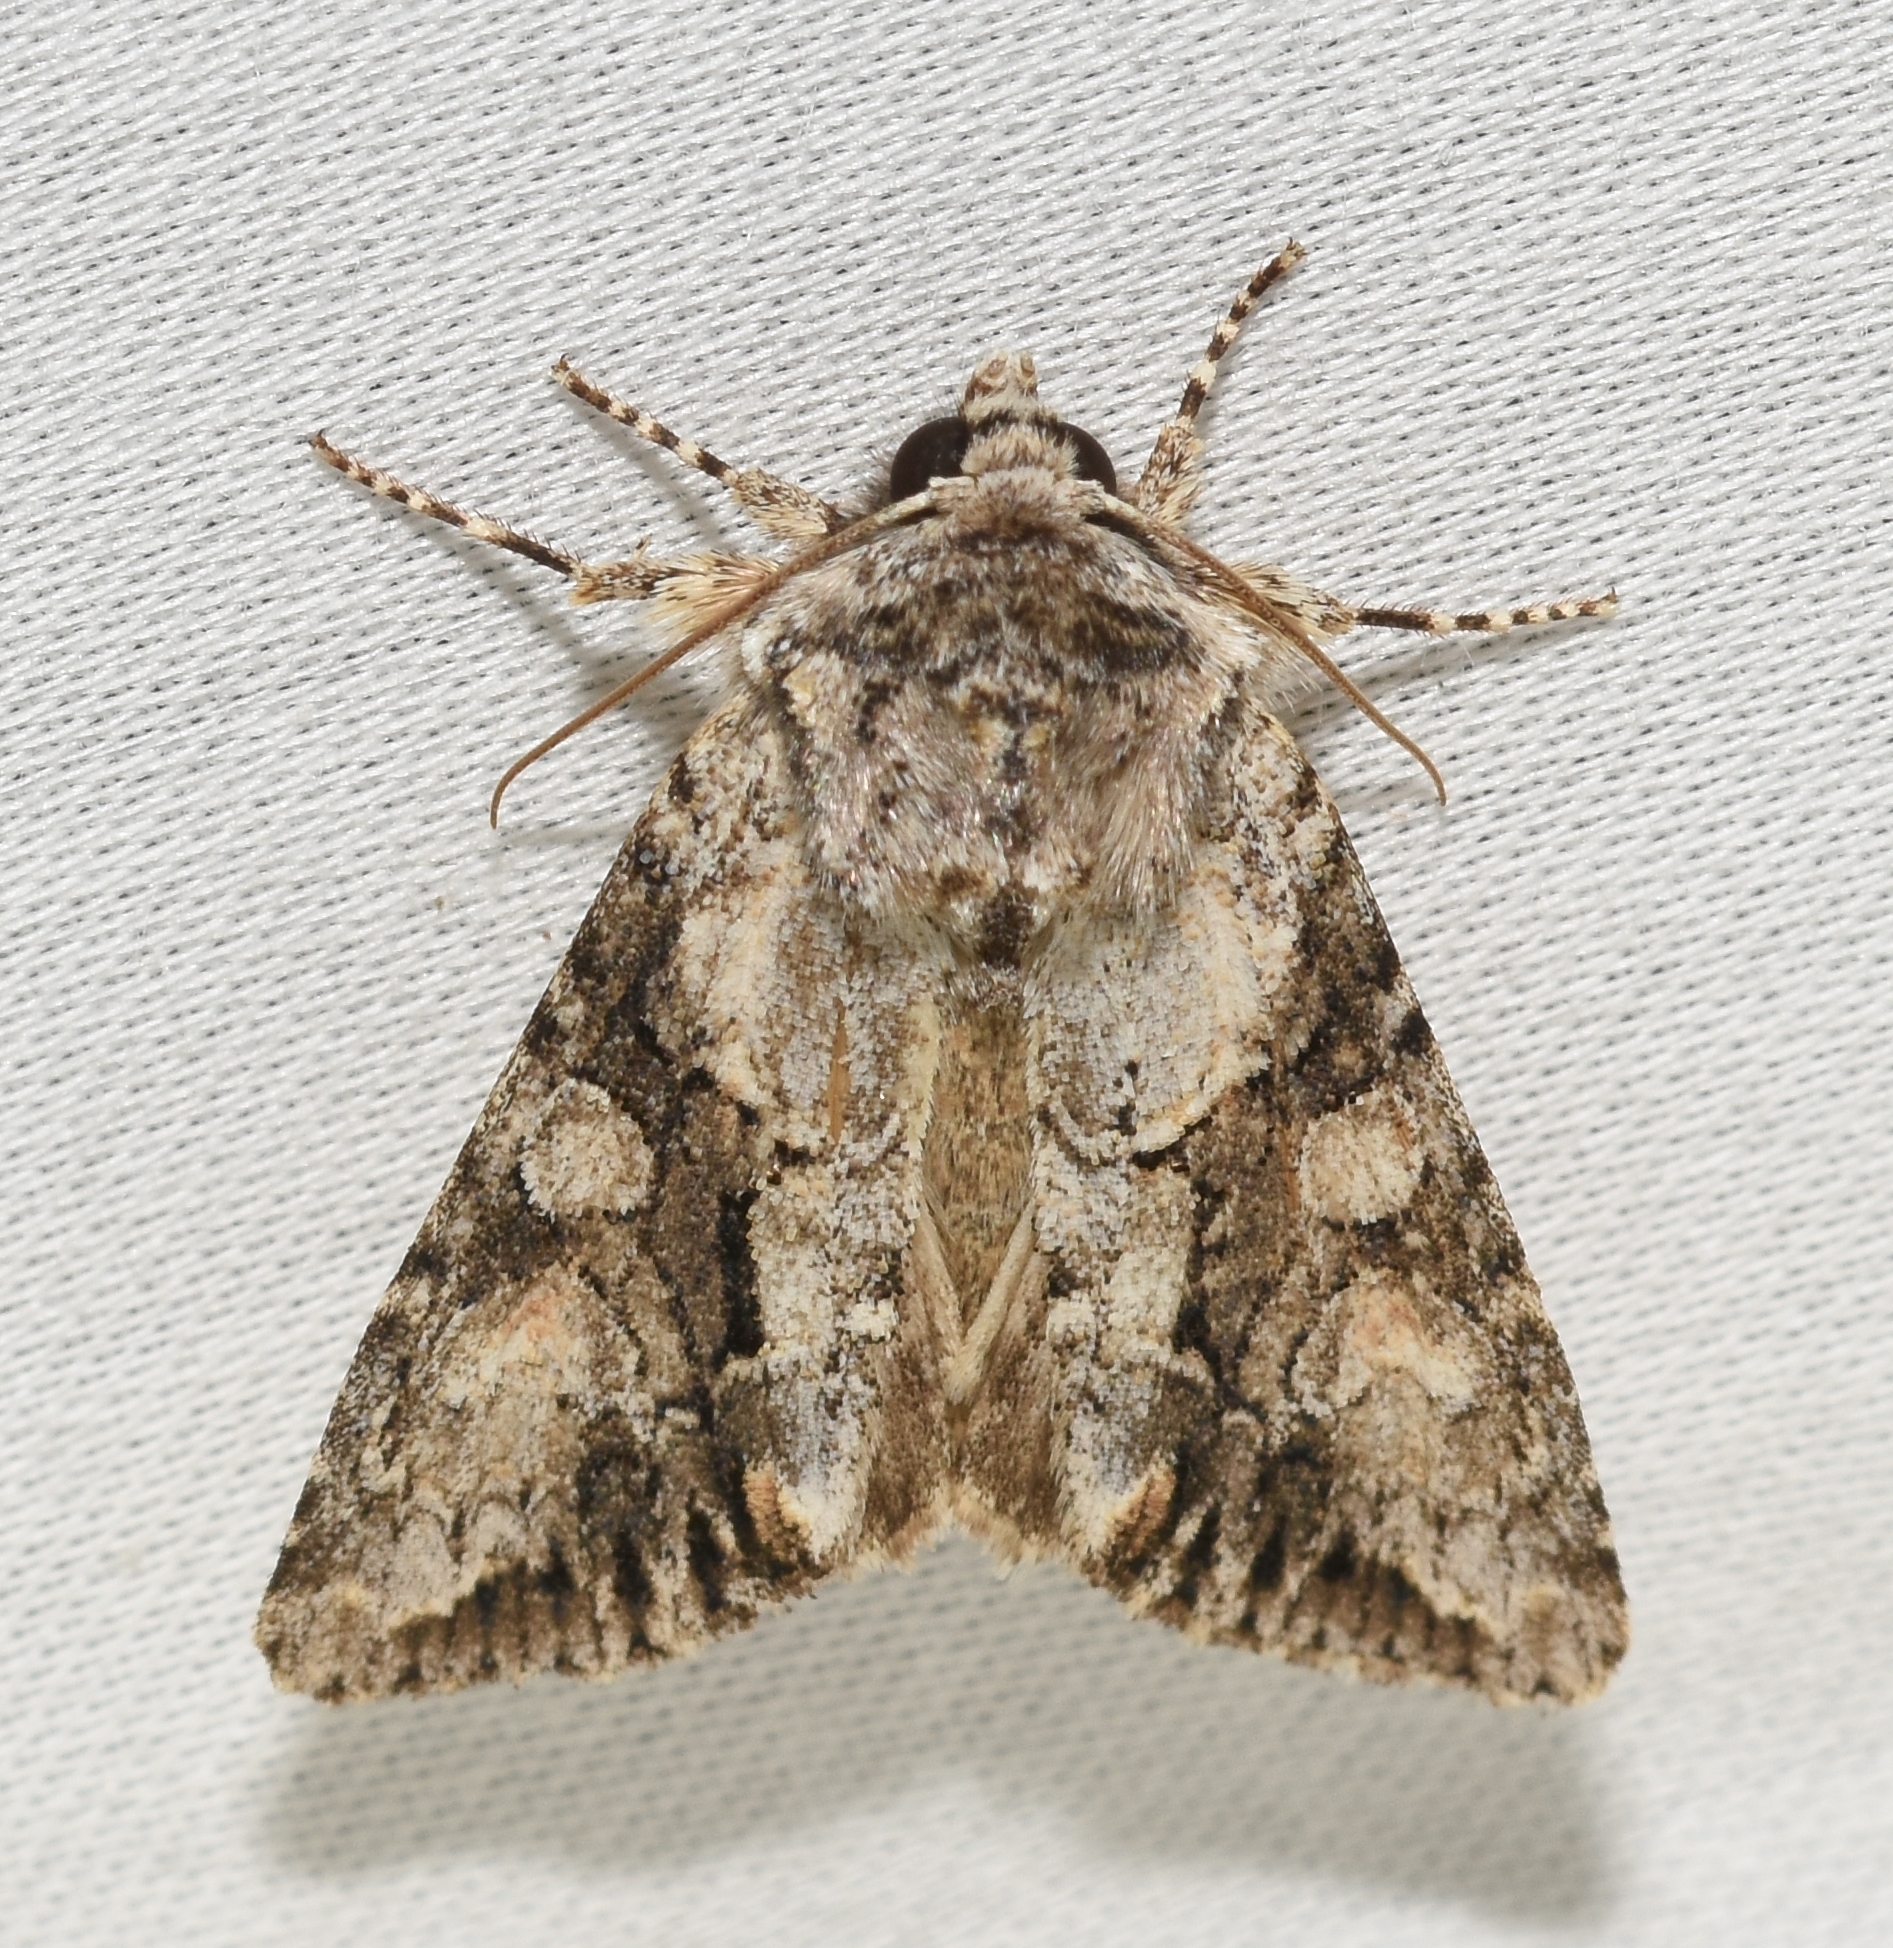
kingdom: Animalia
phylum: Arthropoda
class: Insecta
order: Lepidoptera
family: Noctuidae
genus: Achatia
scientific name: Achatia distincta
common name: Distinct quaker
